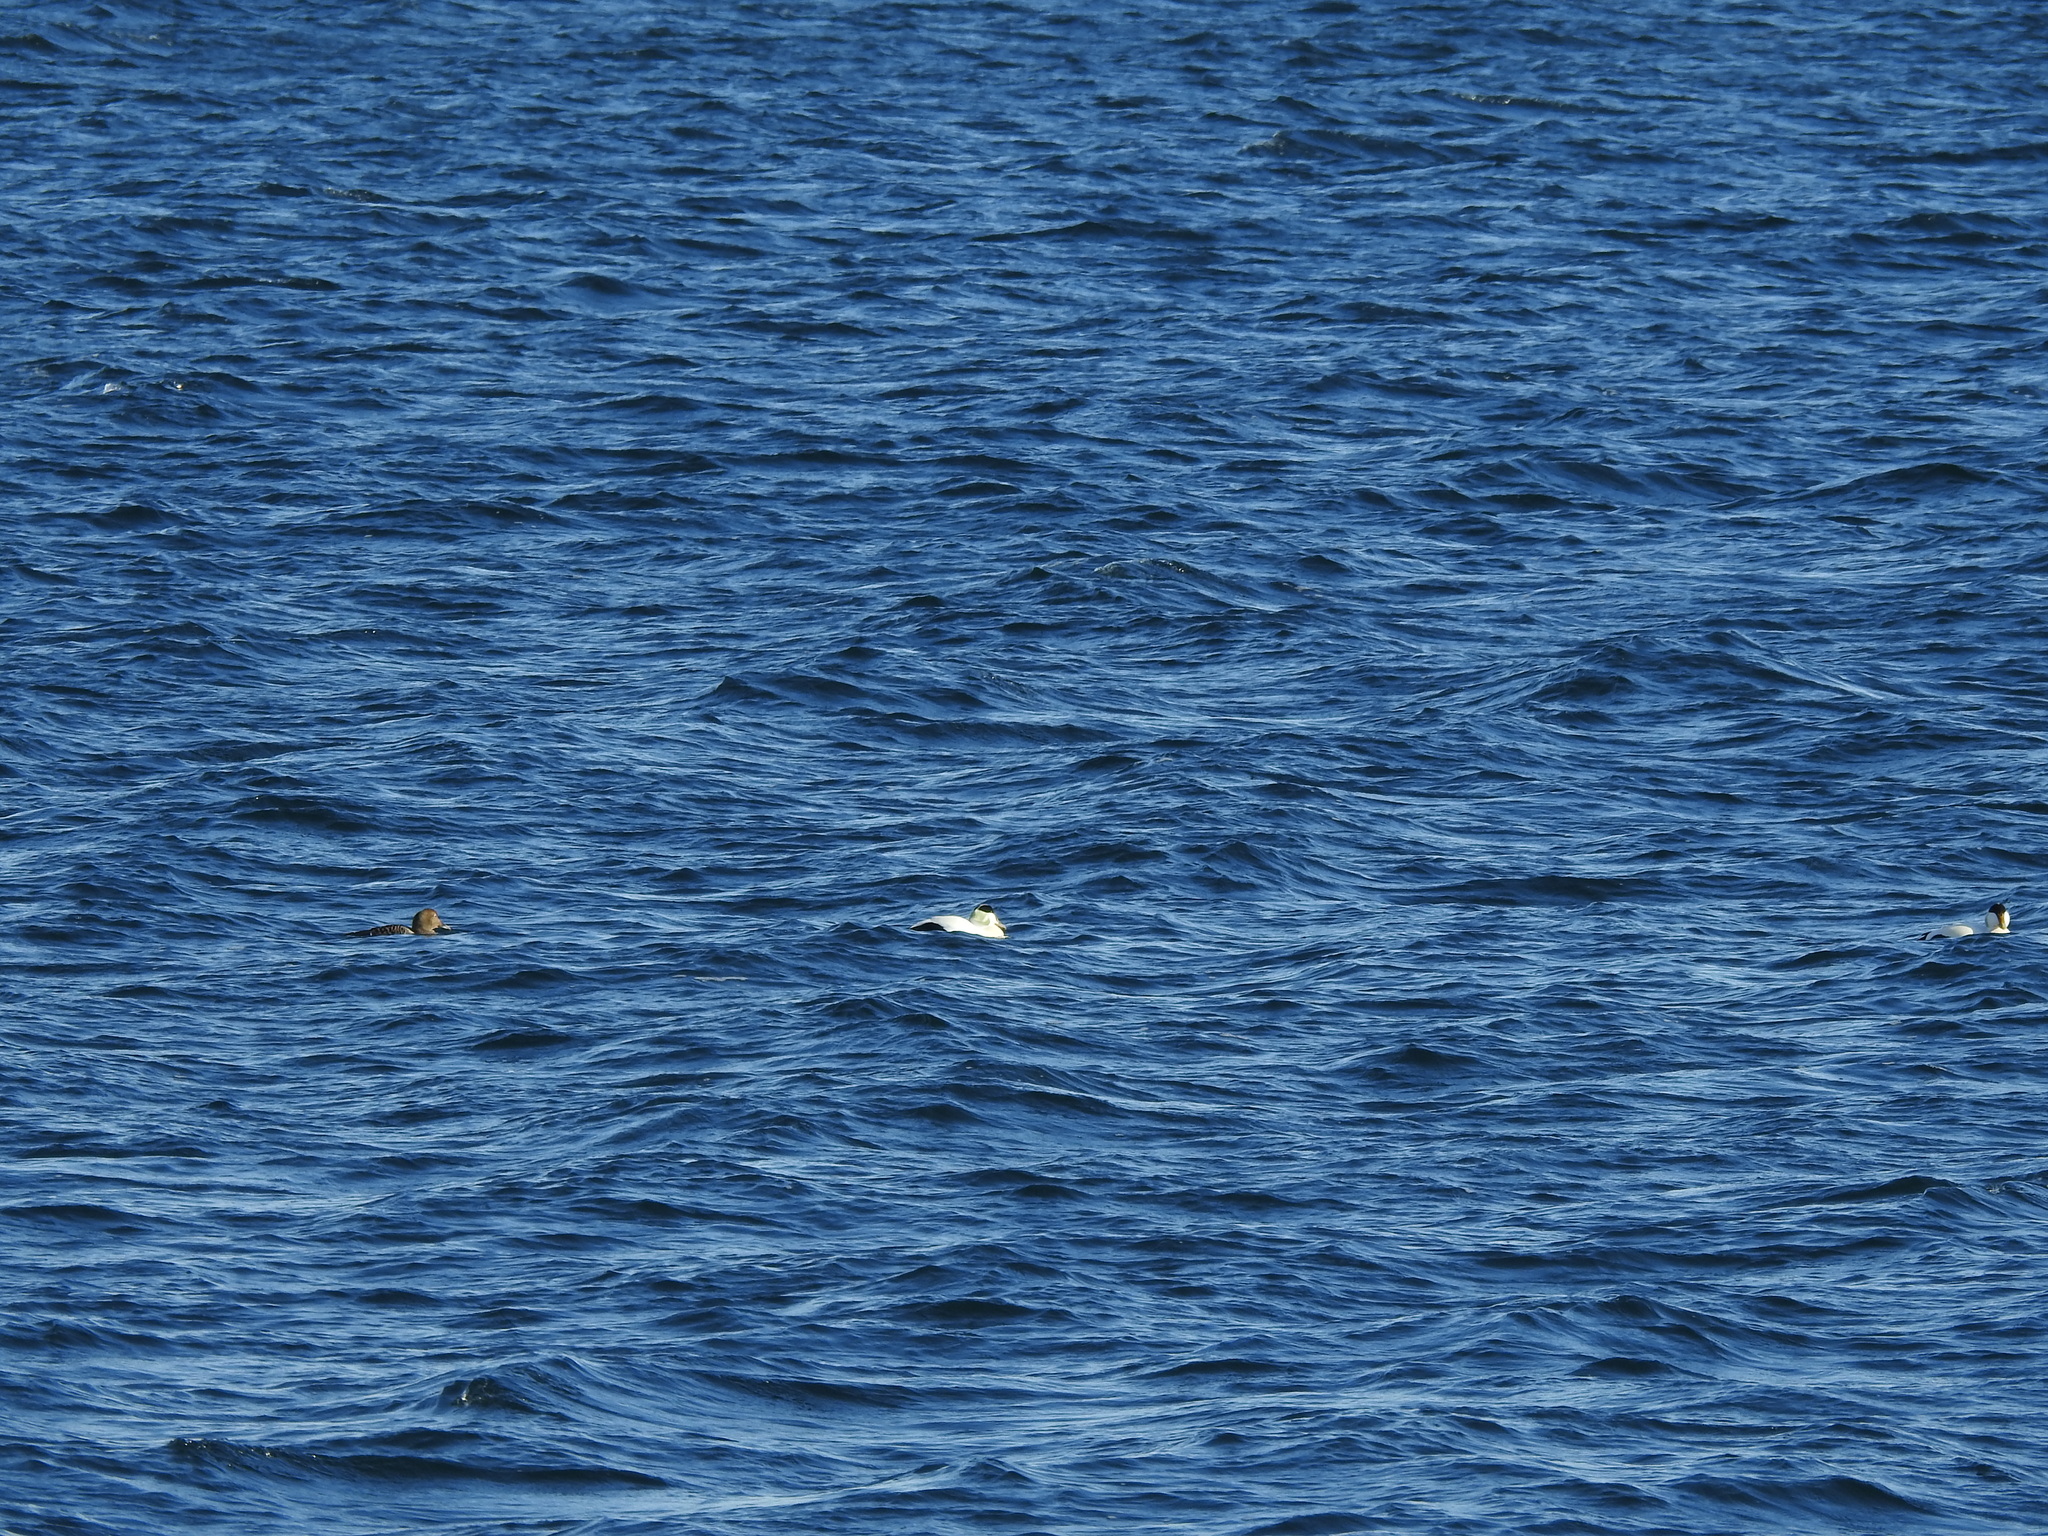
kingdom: Animalia
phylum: Chordata
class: Aves
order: Anseriformes
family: Anatidae
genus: Somateria
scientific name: Somateria mollissima
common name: Common eider
